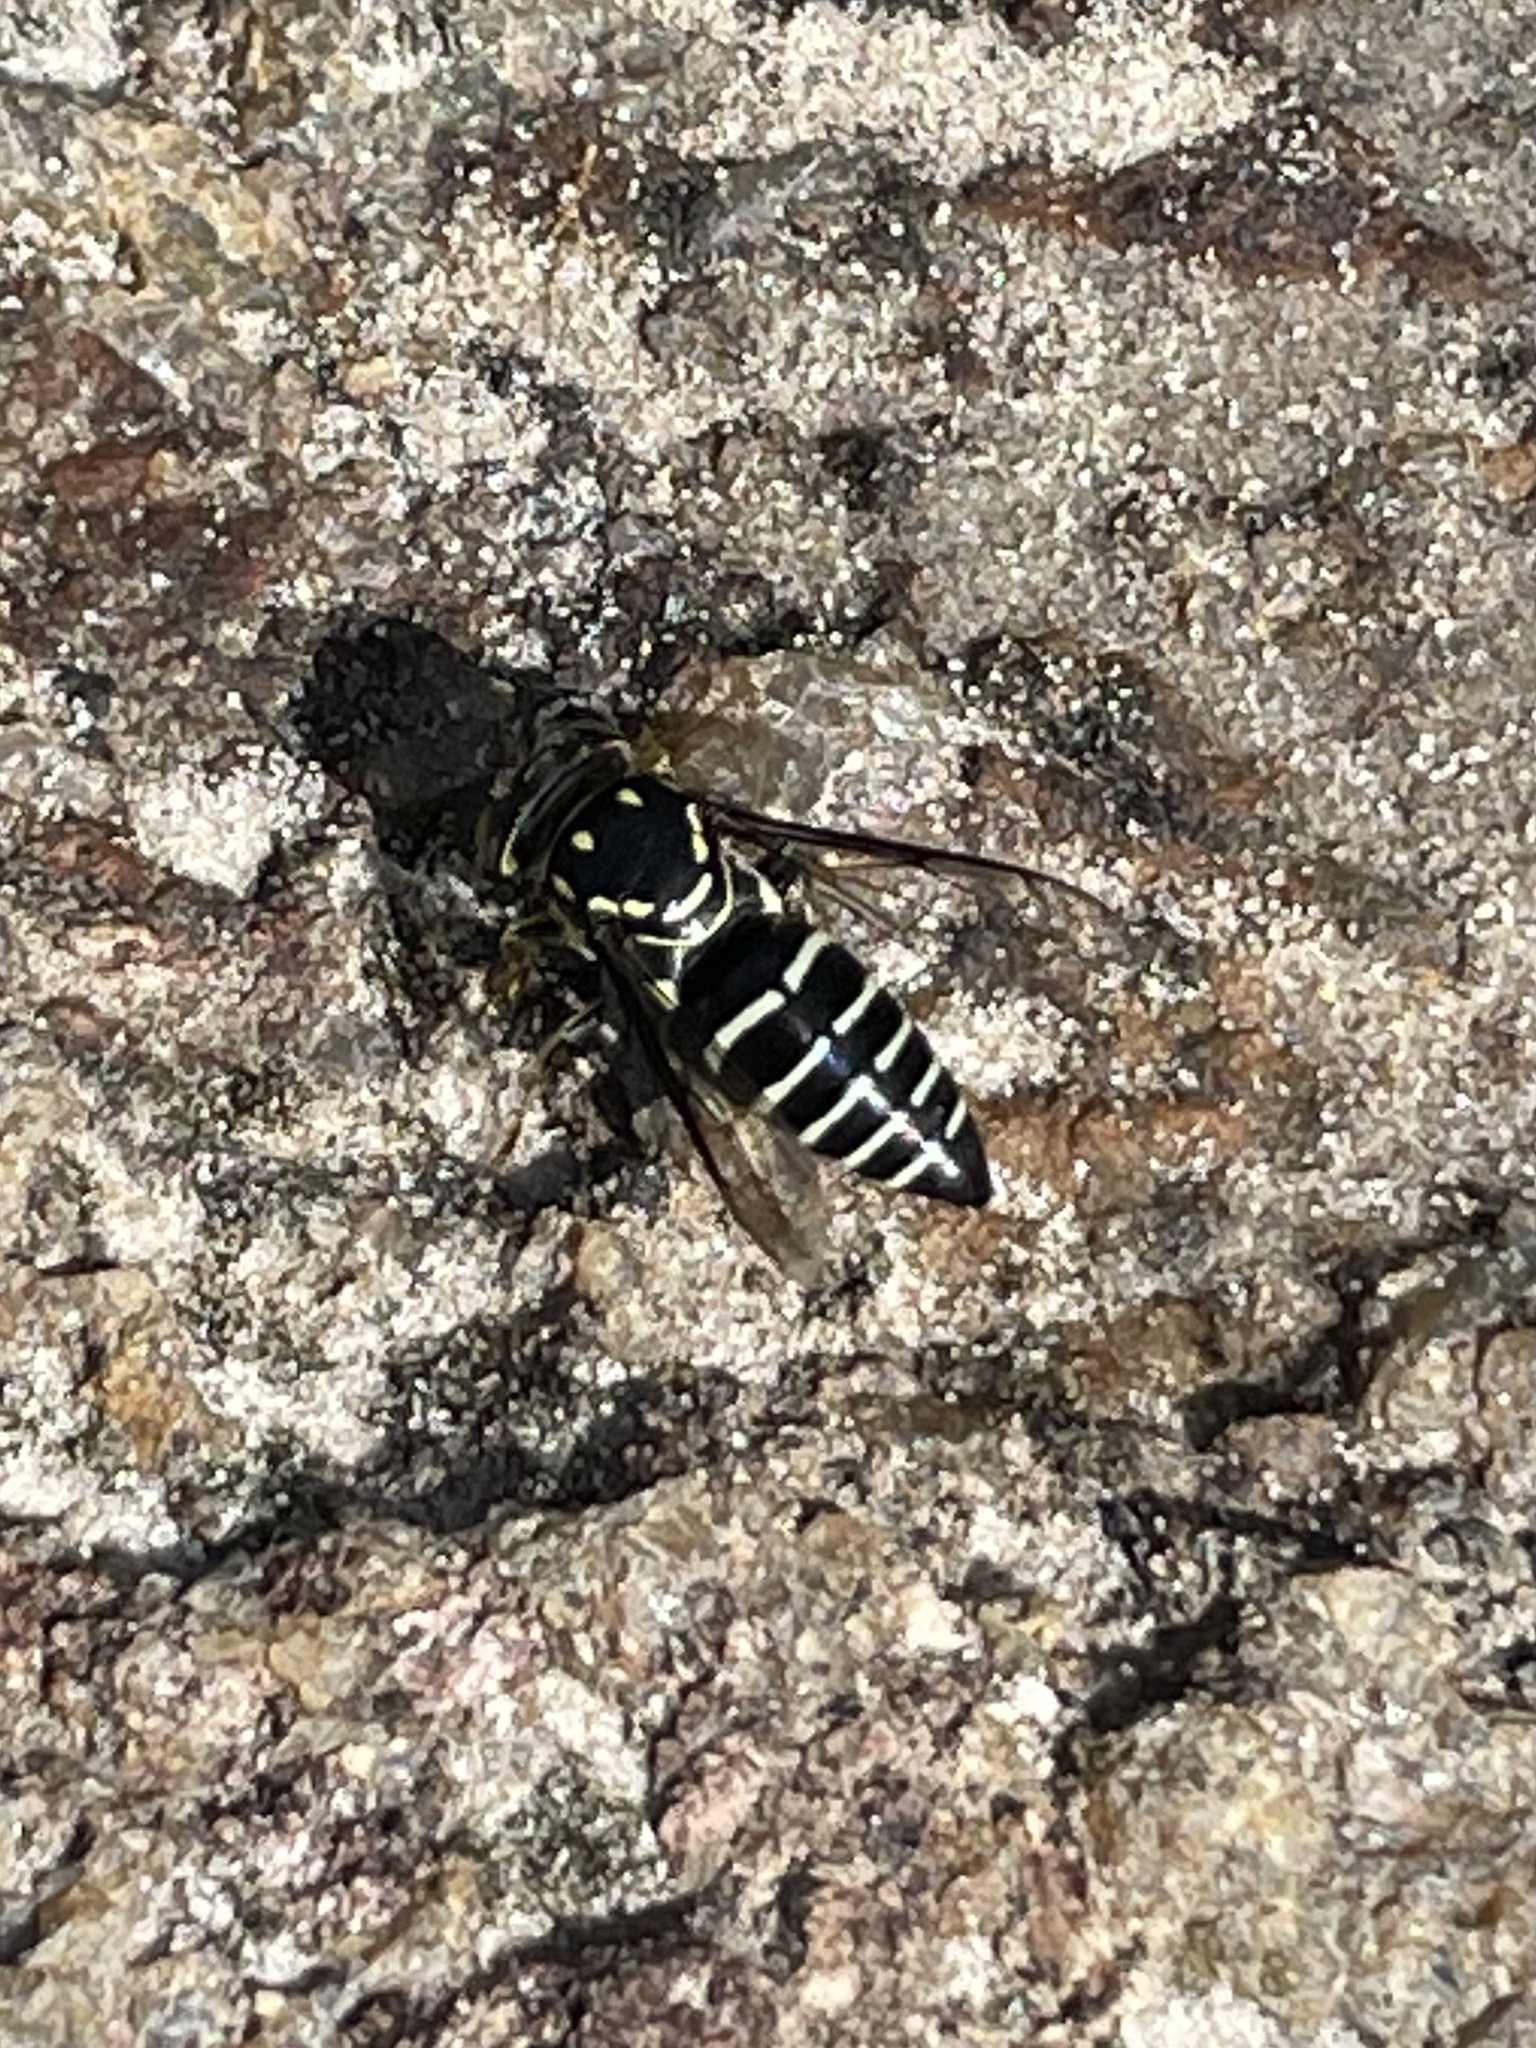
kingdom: Animalia
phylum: Arthropoda
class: Insecta
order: Hymenoptera
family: Crabronidae
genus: Bicyrtes
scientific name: Bicyrtes discisus
